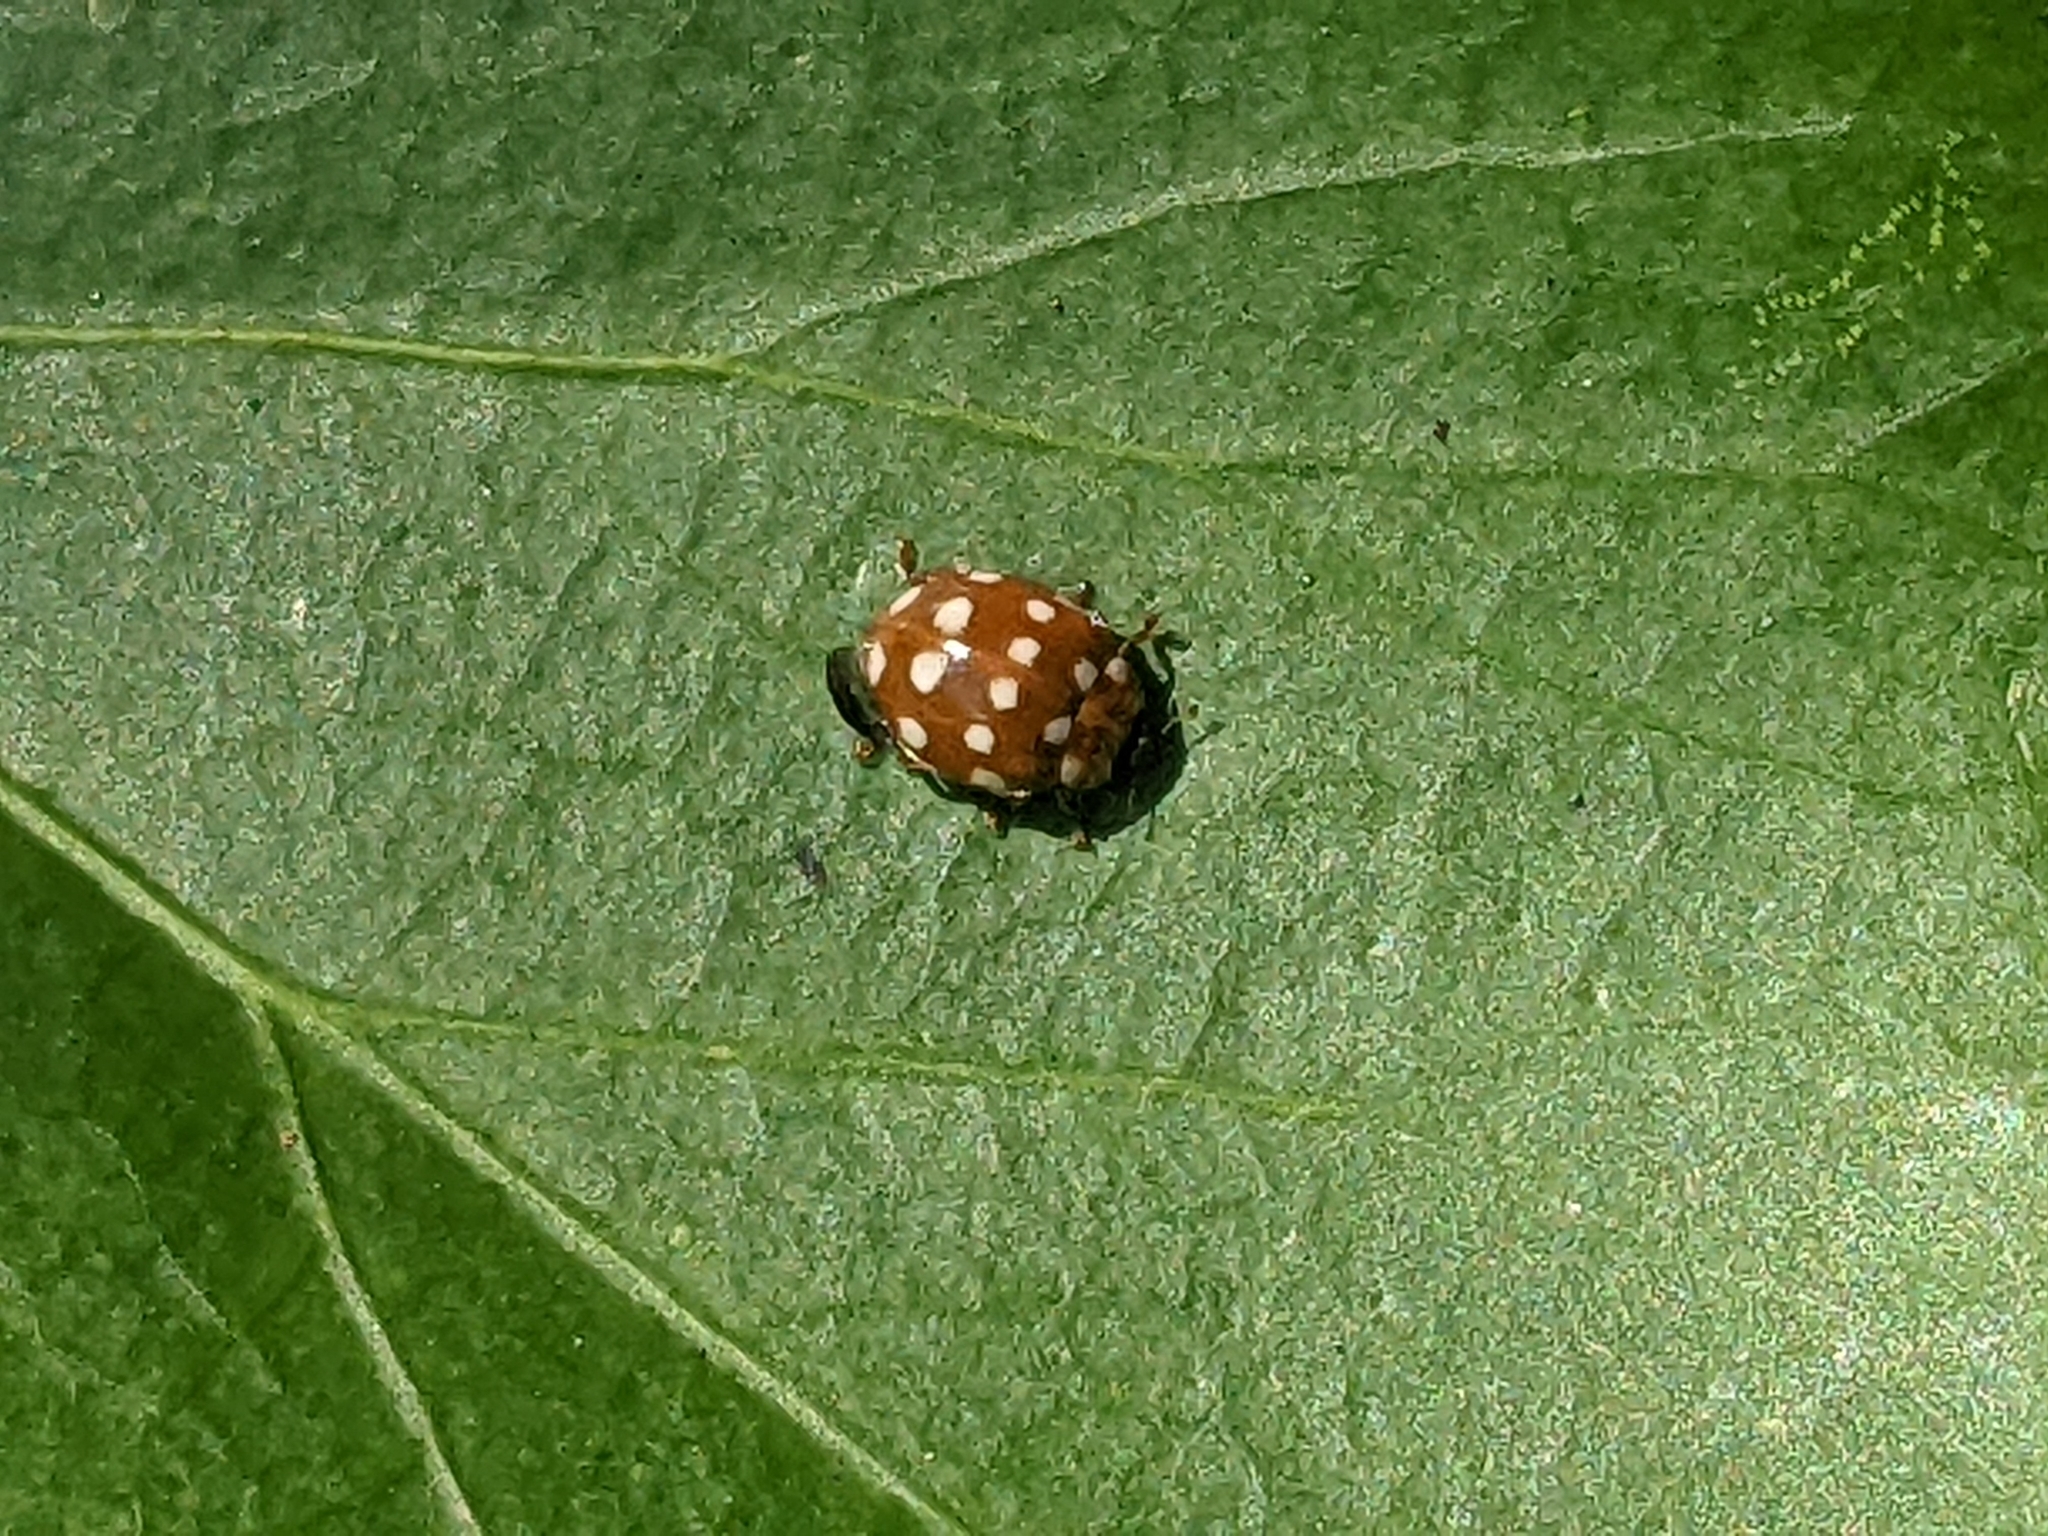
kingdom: Animalia
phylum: Arthropoda
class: Insecta
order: Coleoptera
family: Coccinellidae
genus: Calvia
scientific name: Calvia quatuordecimguttata
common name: Cream-spot ladybird
